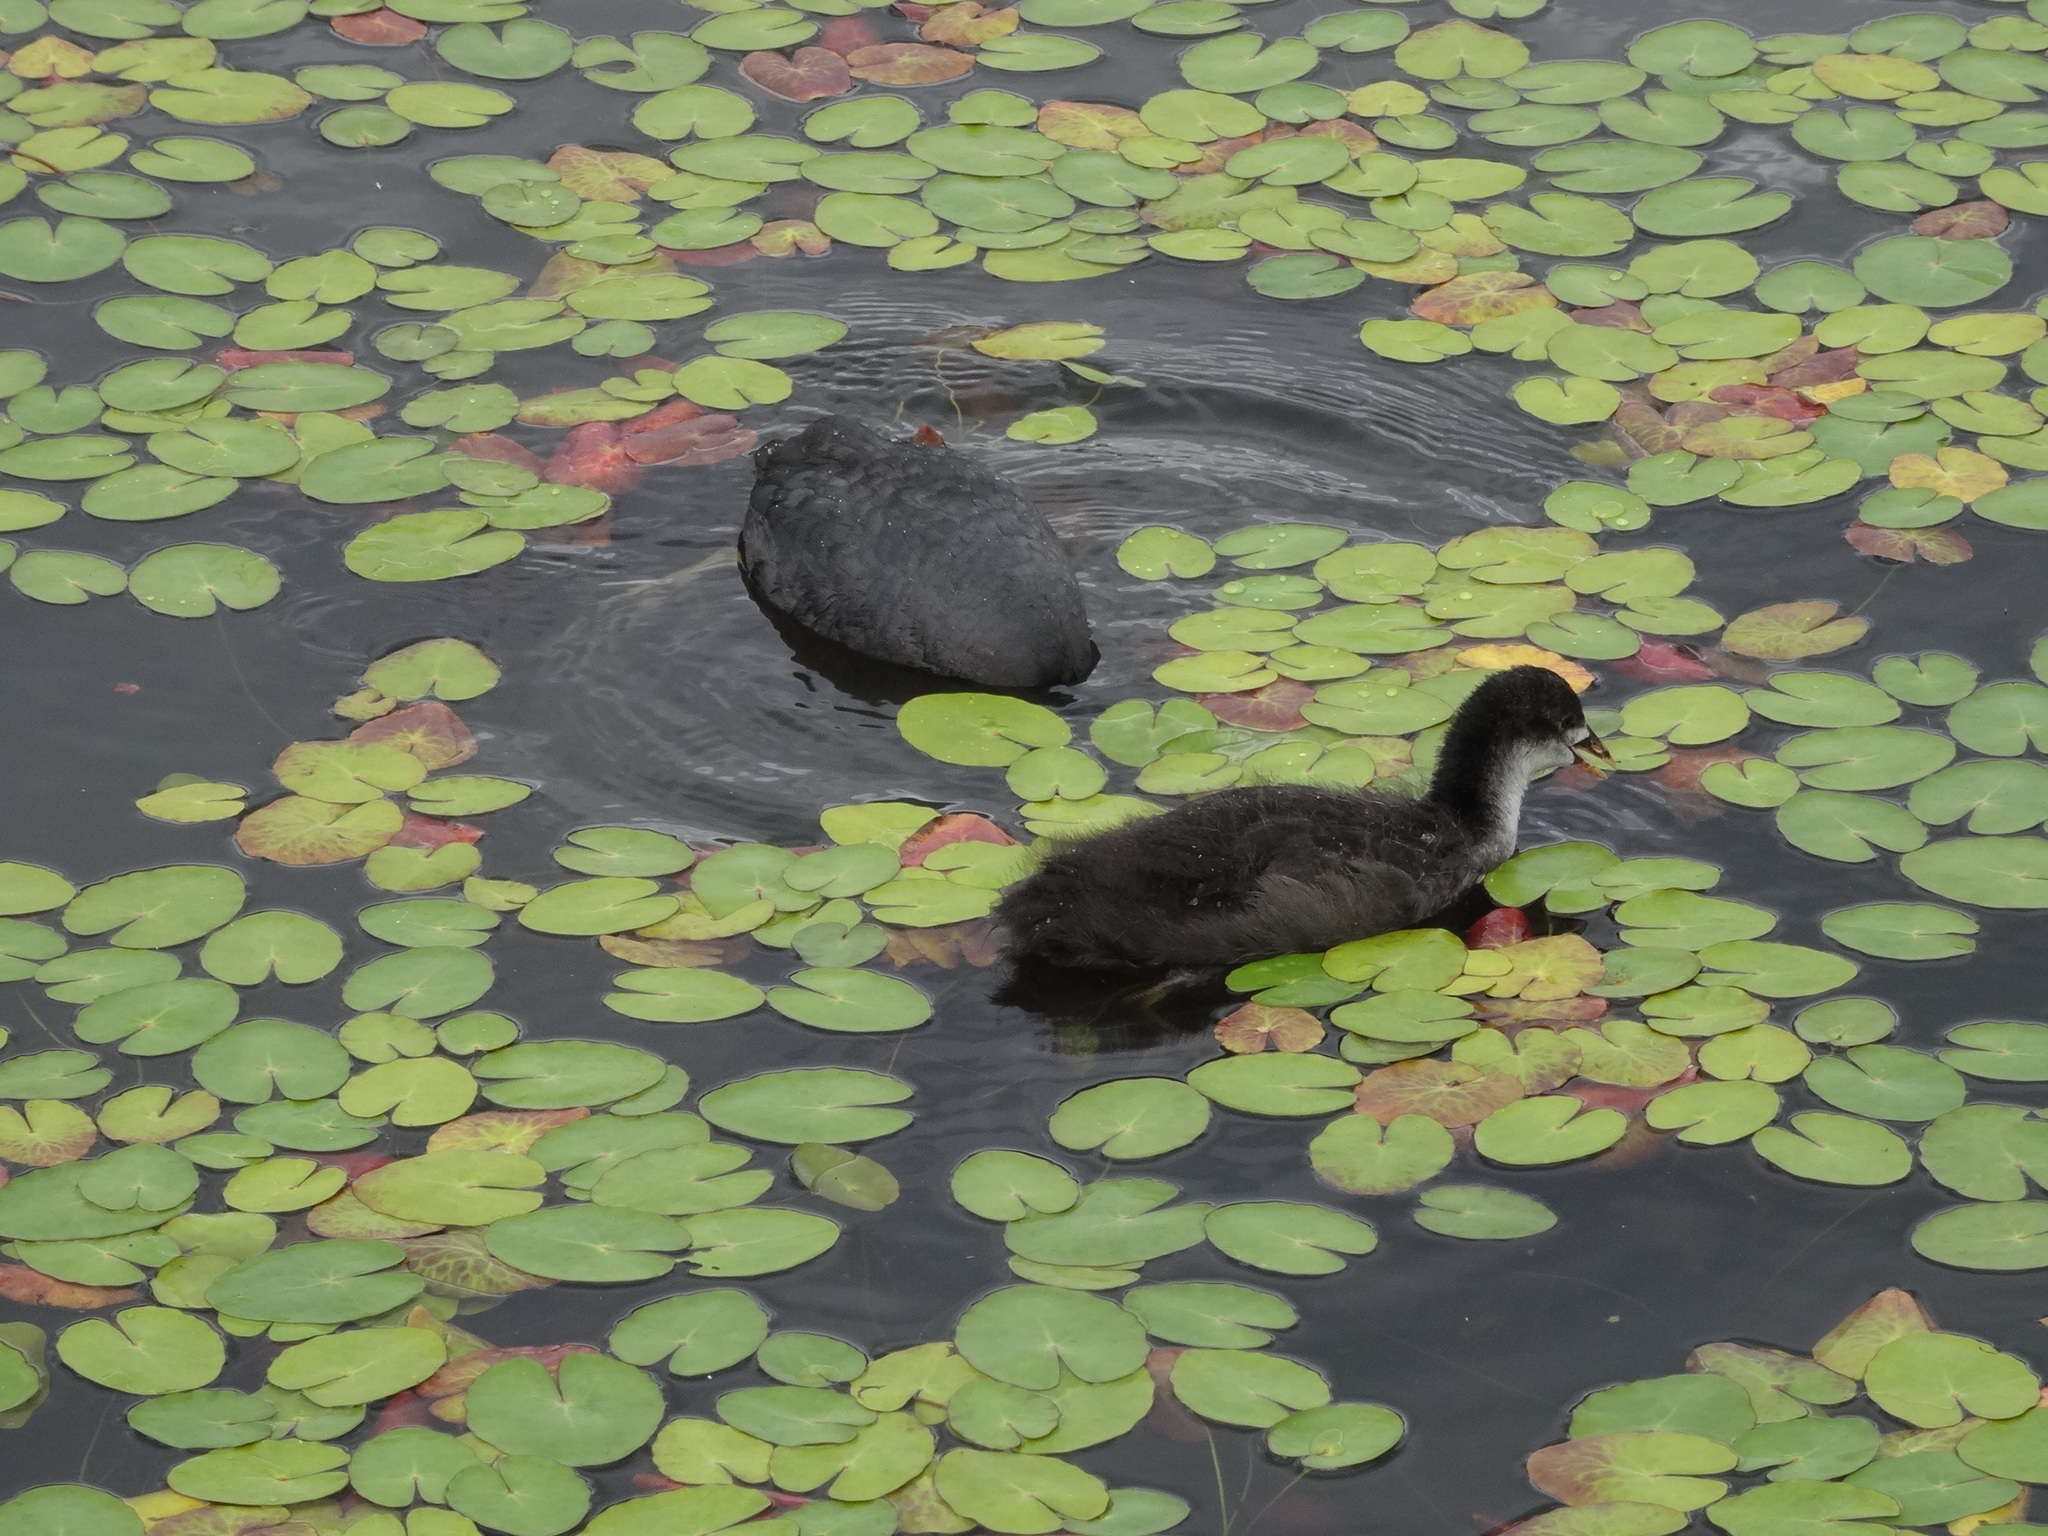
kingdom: Plantae
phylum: Tracheophyta
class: Magnoliopsida
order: Asterales
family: Menyanthaceae
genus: Nymphoides
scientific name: Nymphoides peltata
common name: Fringed water-lily
